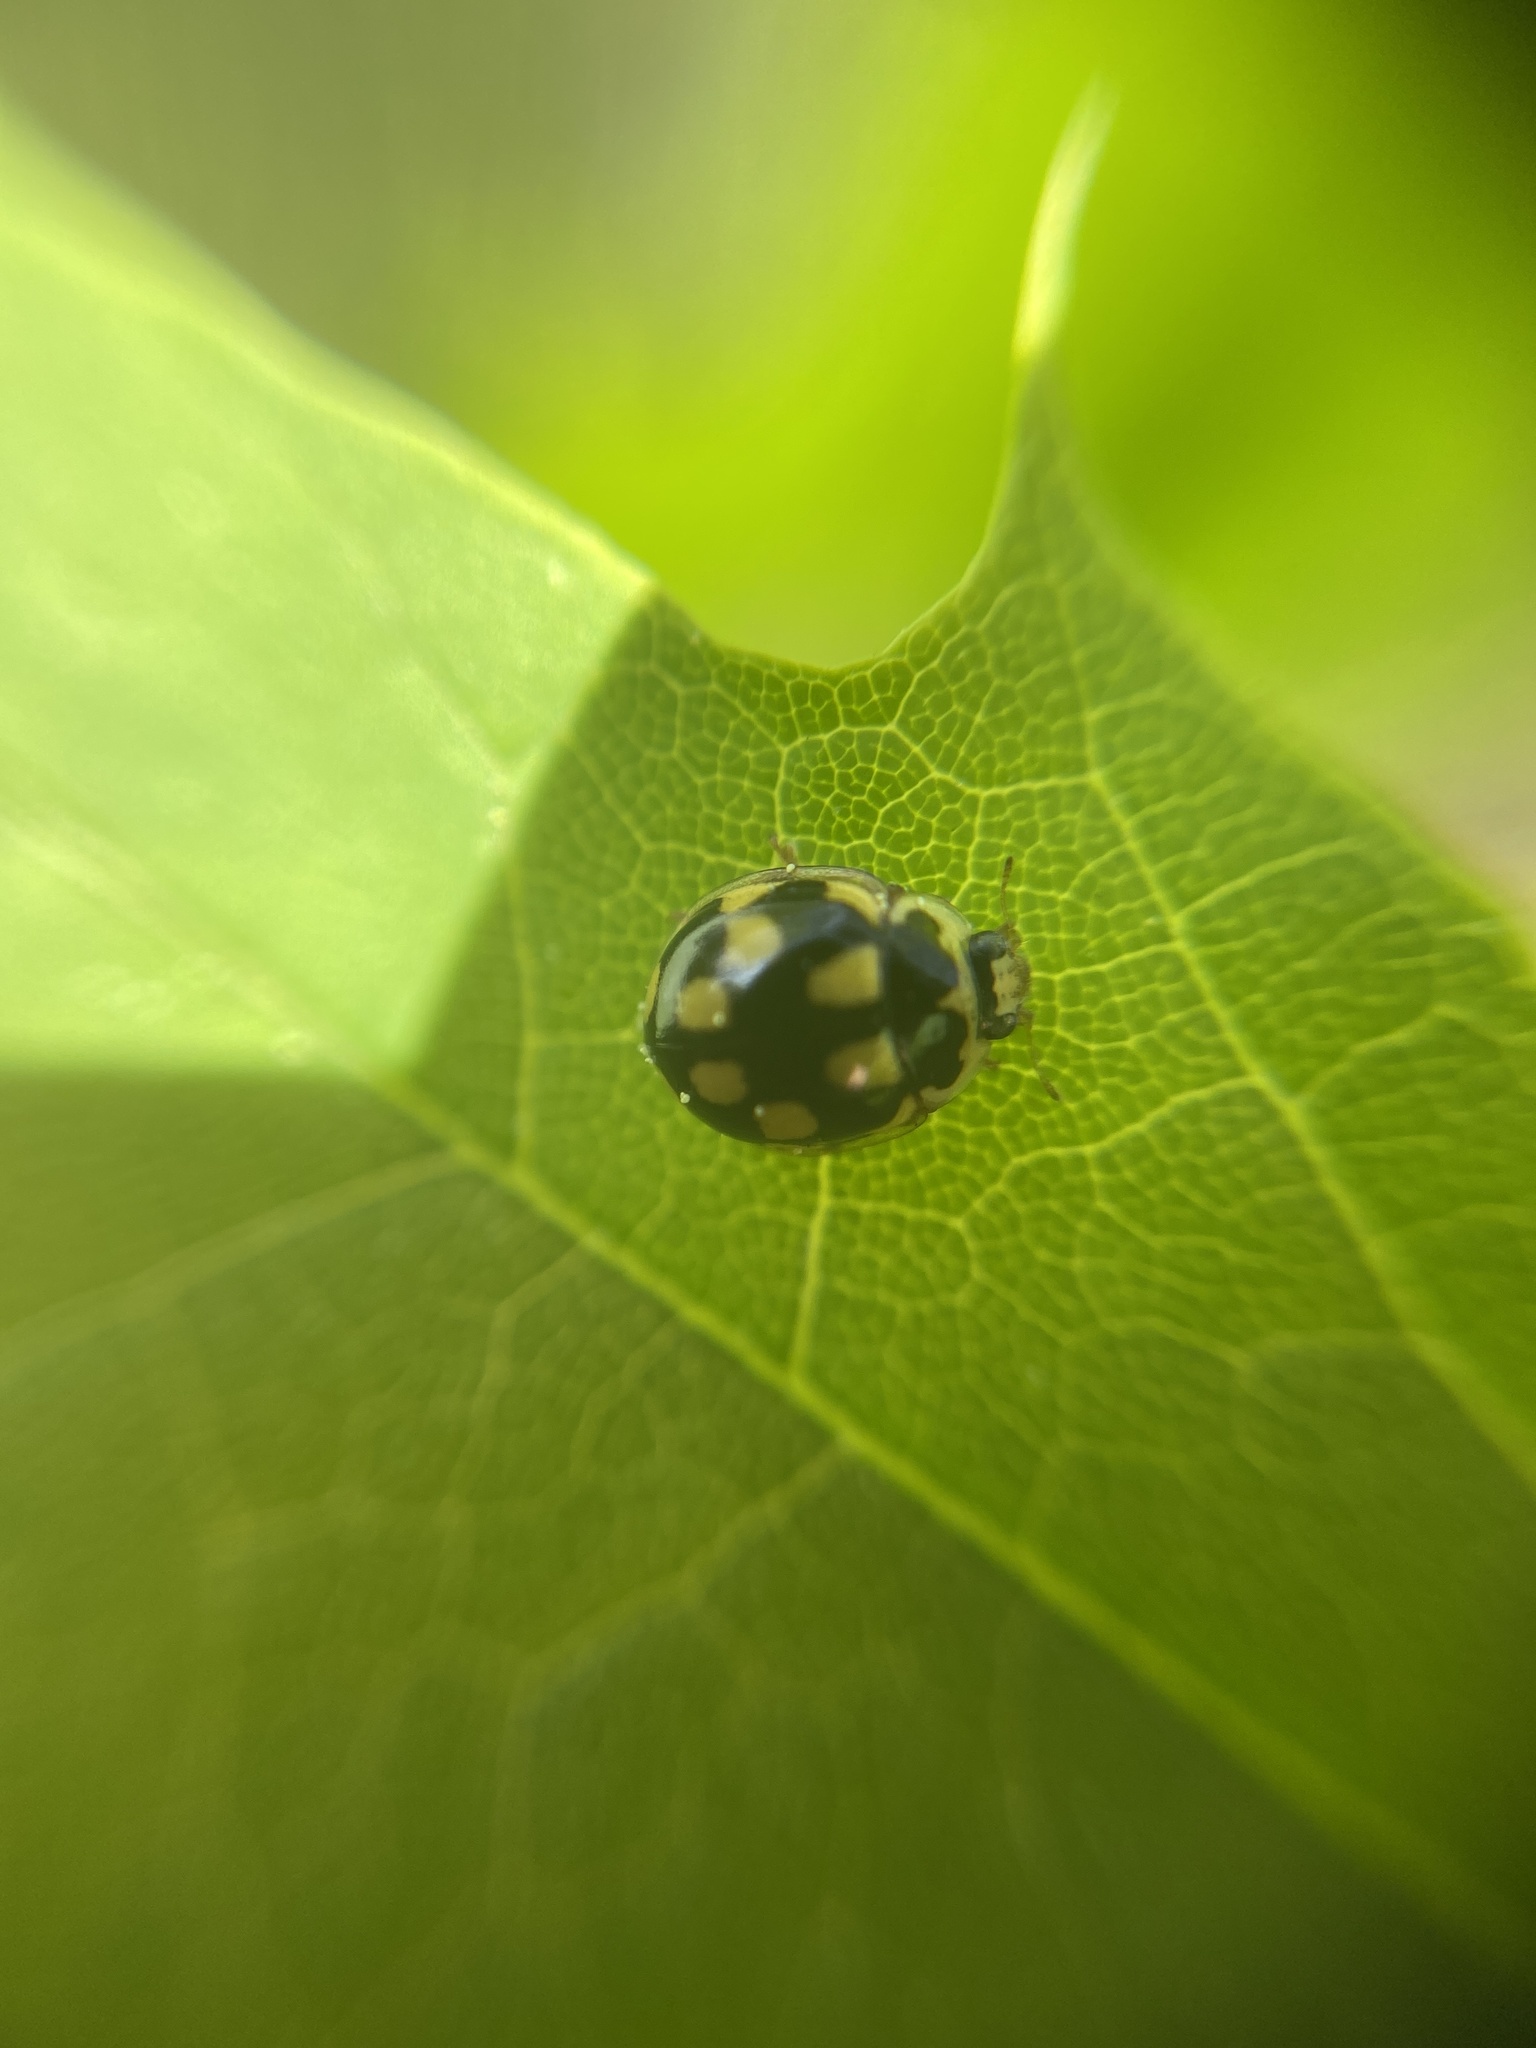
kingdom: Animalia
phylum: Arthropoda
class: Insecta
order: Coleoptera
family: Coccinellidae
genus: Propylaea
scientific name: Propylaea quatuordecimpunctata
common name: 14-spotted ladybird beetle
